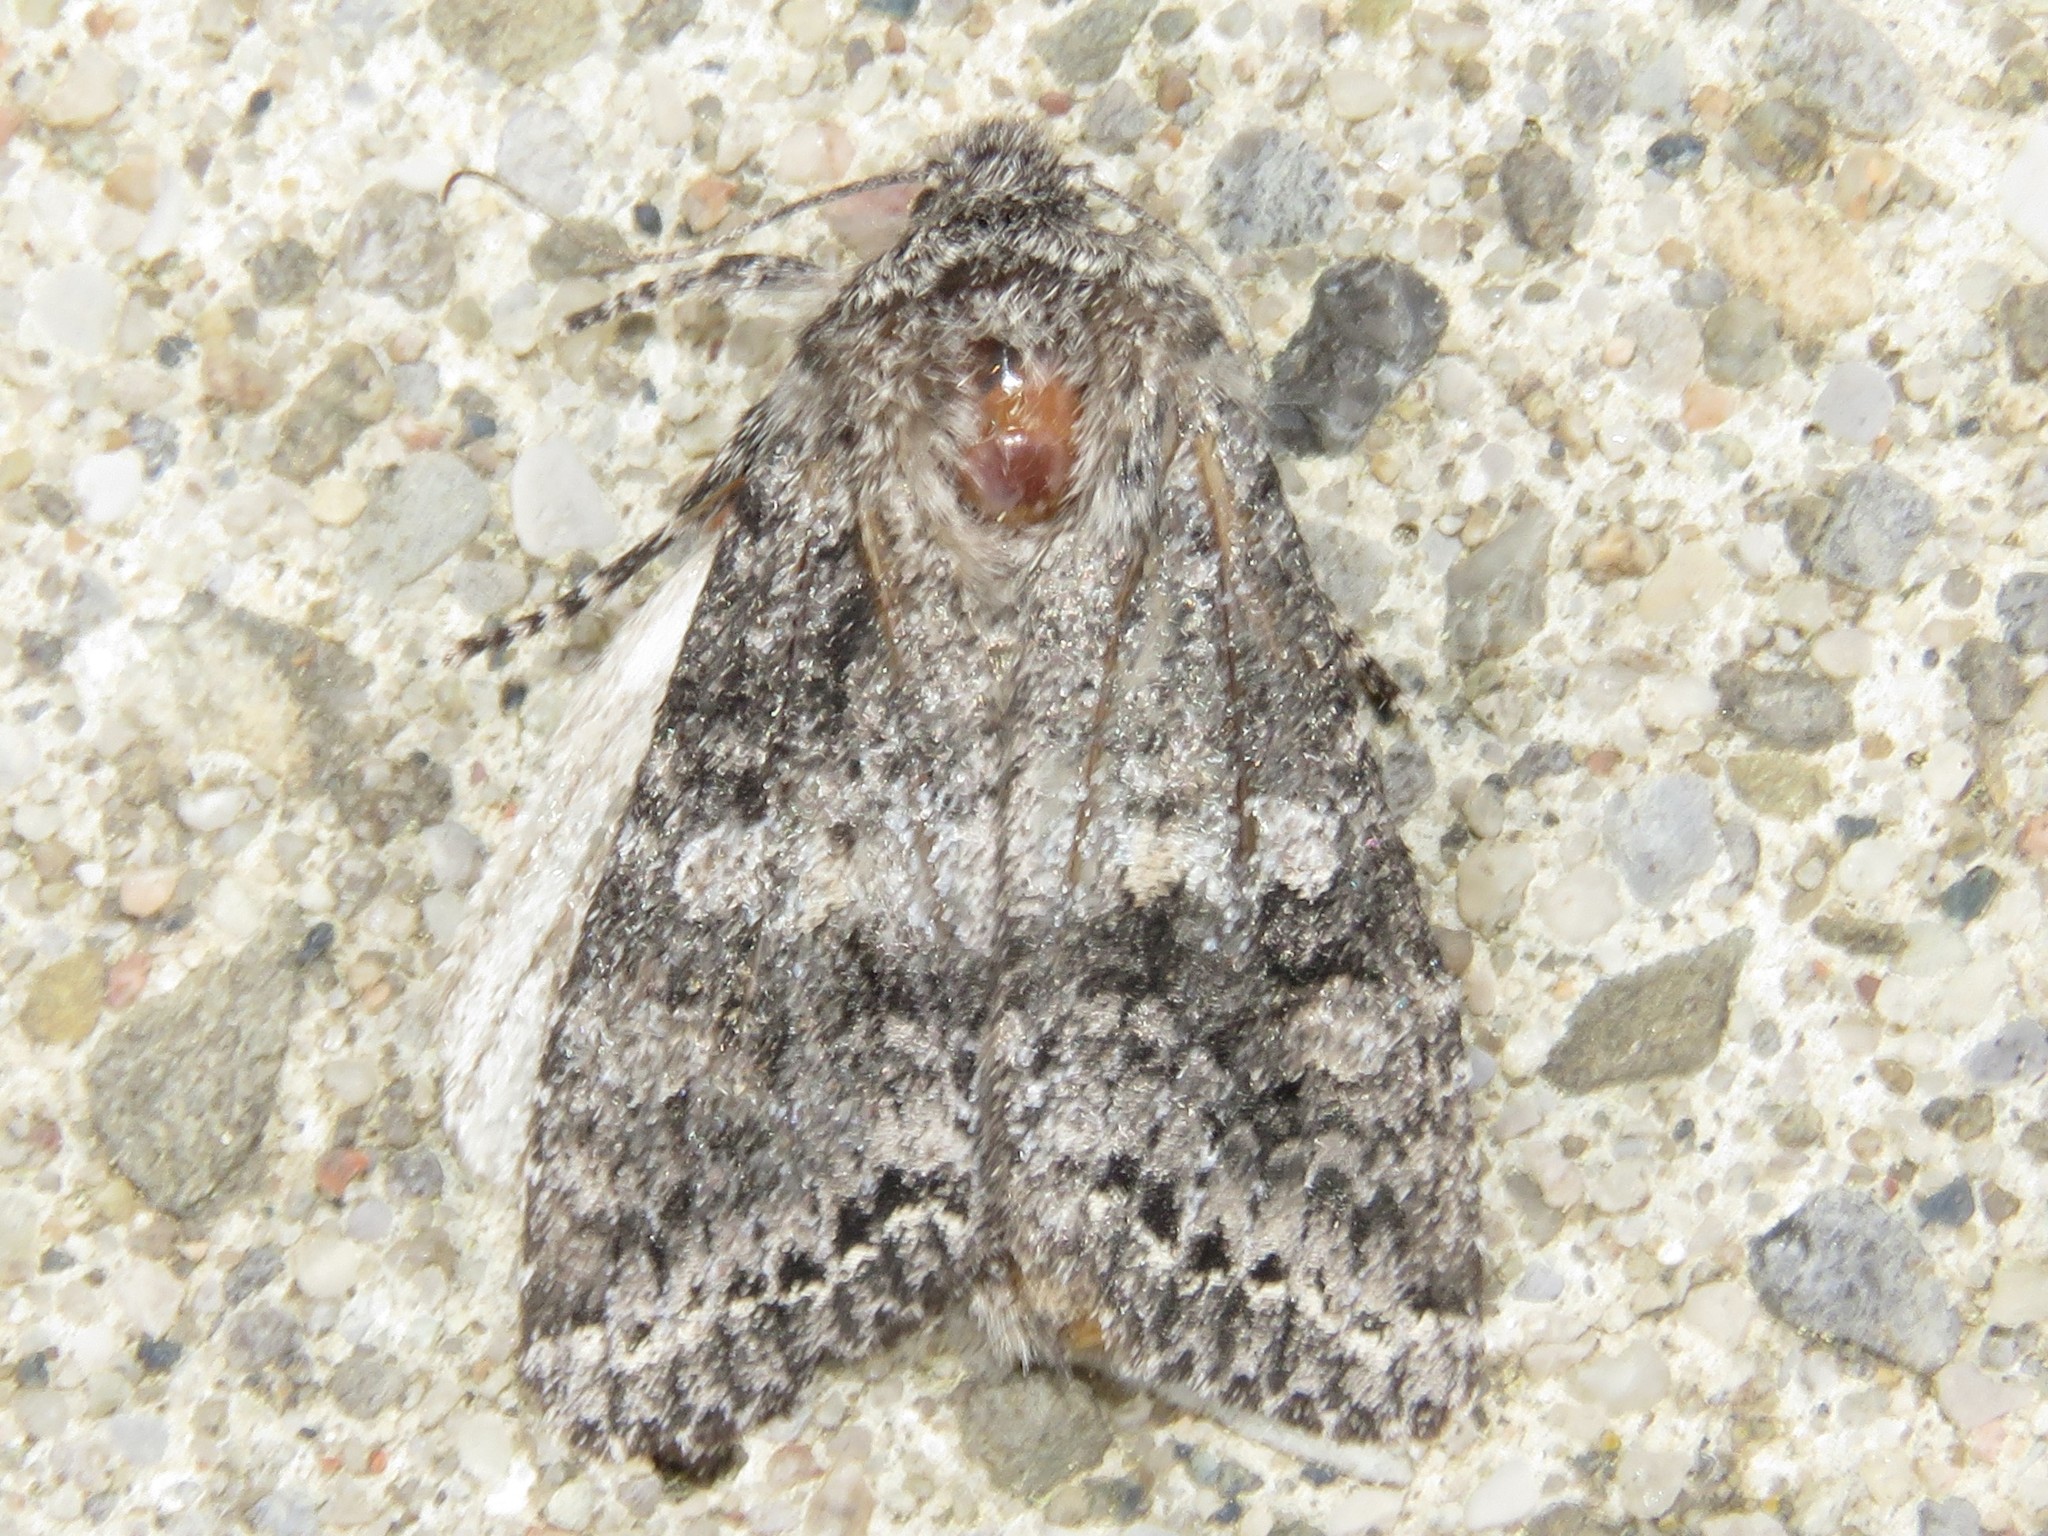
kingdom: Animalia
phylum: Arthropoda
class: Insecta
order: Lepidoptera
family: Noctuidae
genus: Egira
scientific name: Egira dolosa
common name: Lined black aspen cat.
